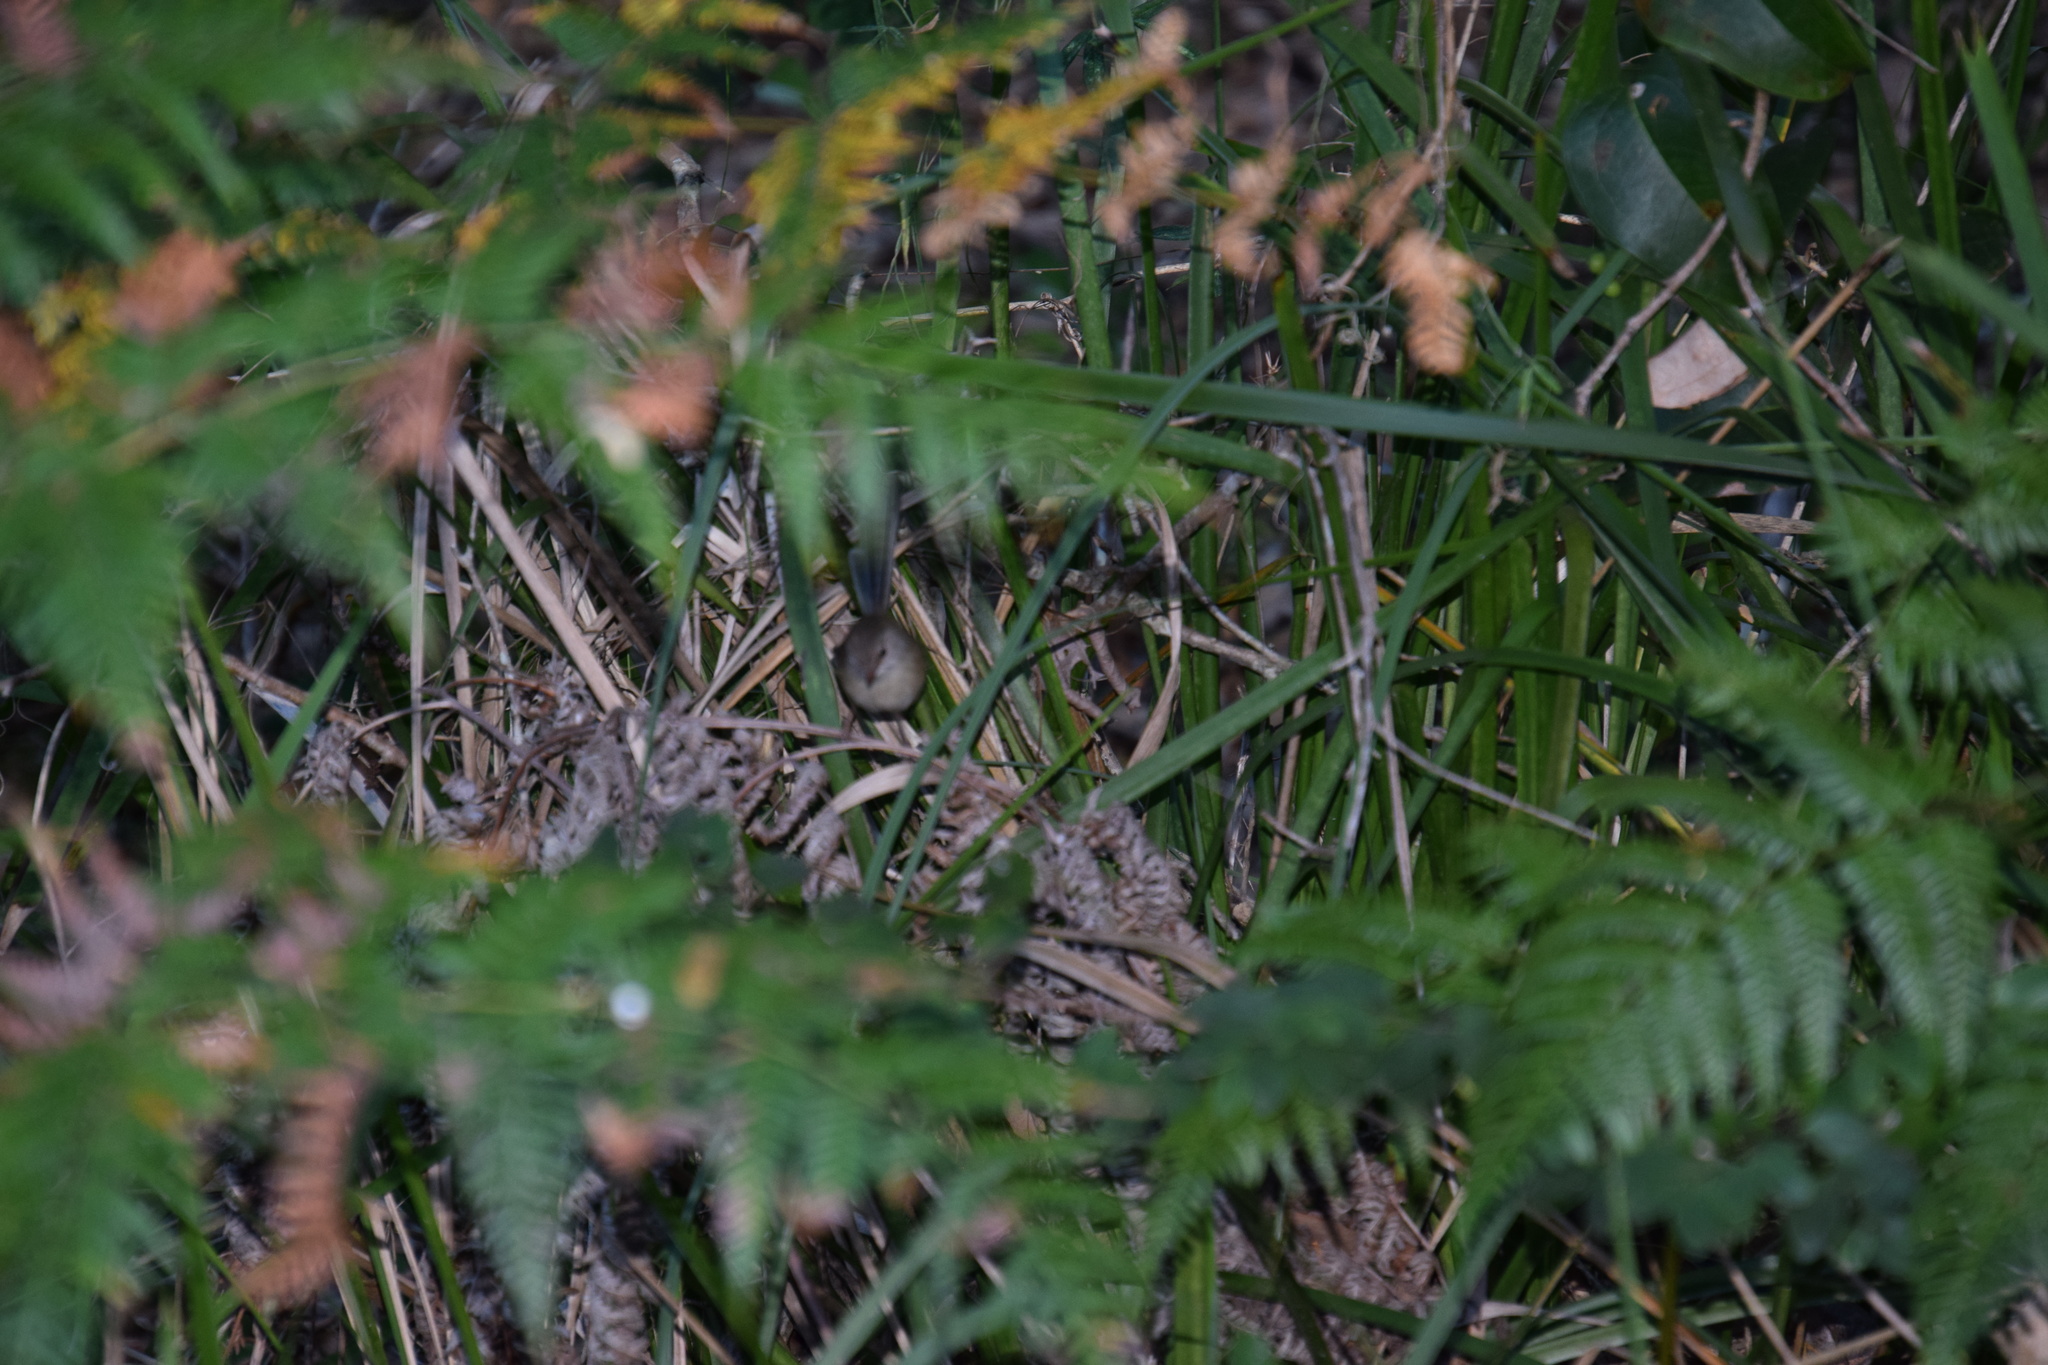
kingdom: Animalia
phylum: Chordata
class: Aves
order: Passeriformes
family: Maluridae
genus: Malurus
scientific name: Malurus lamberti
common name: Variegated fairywren
